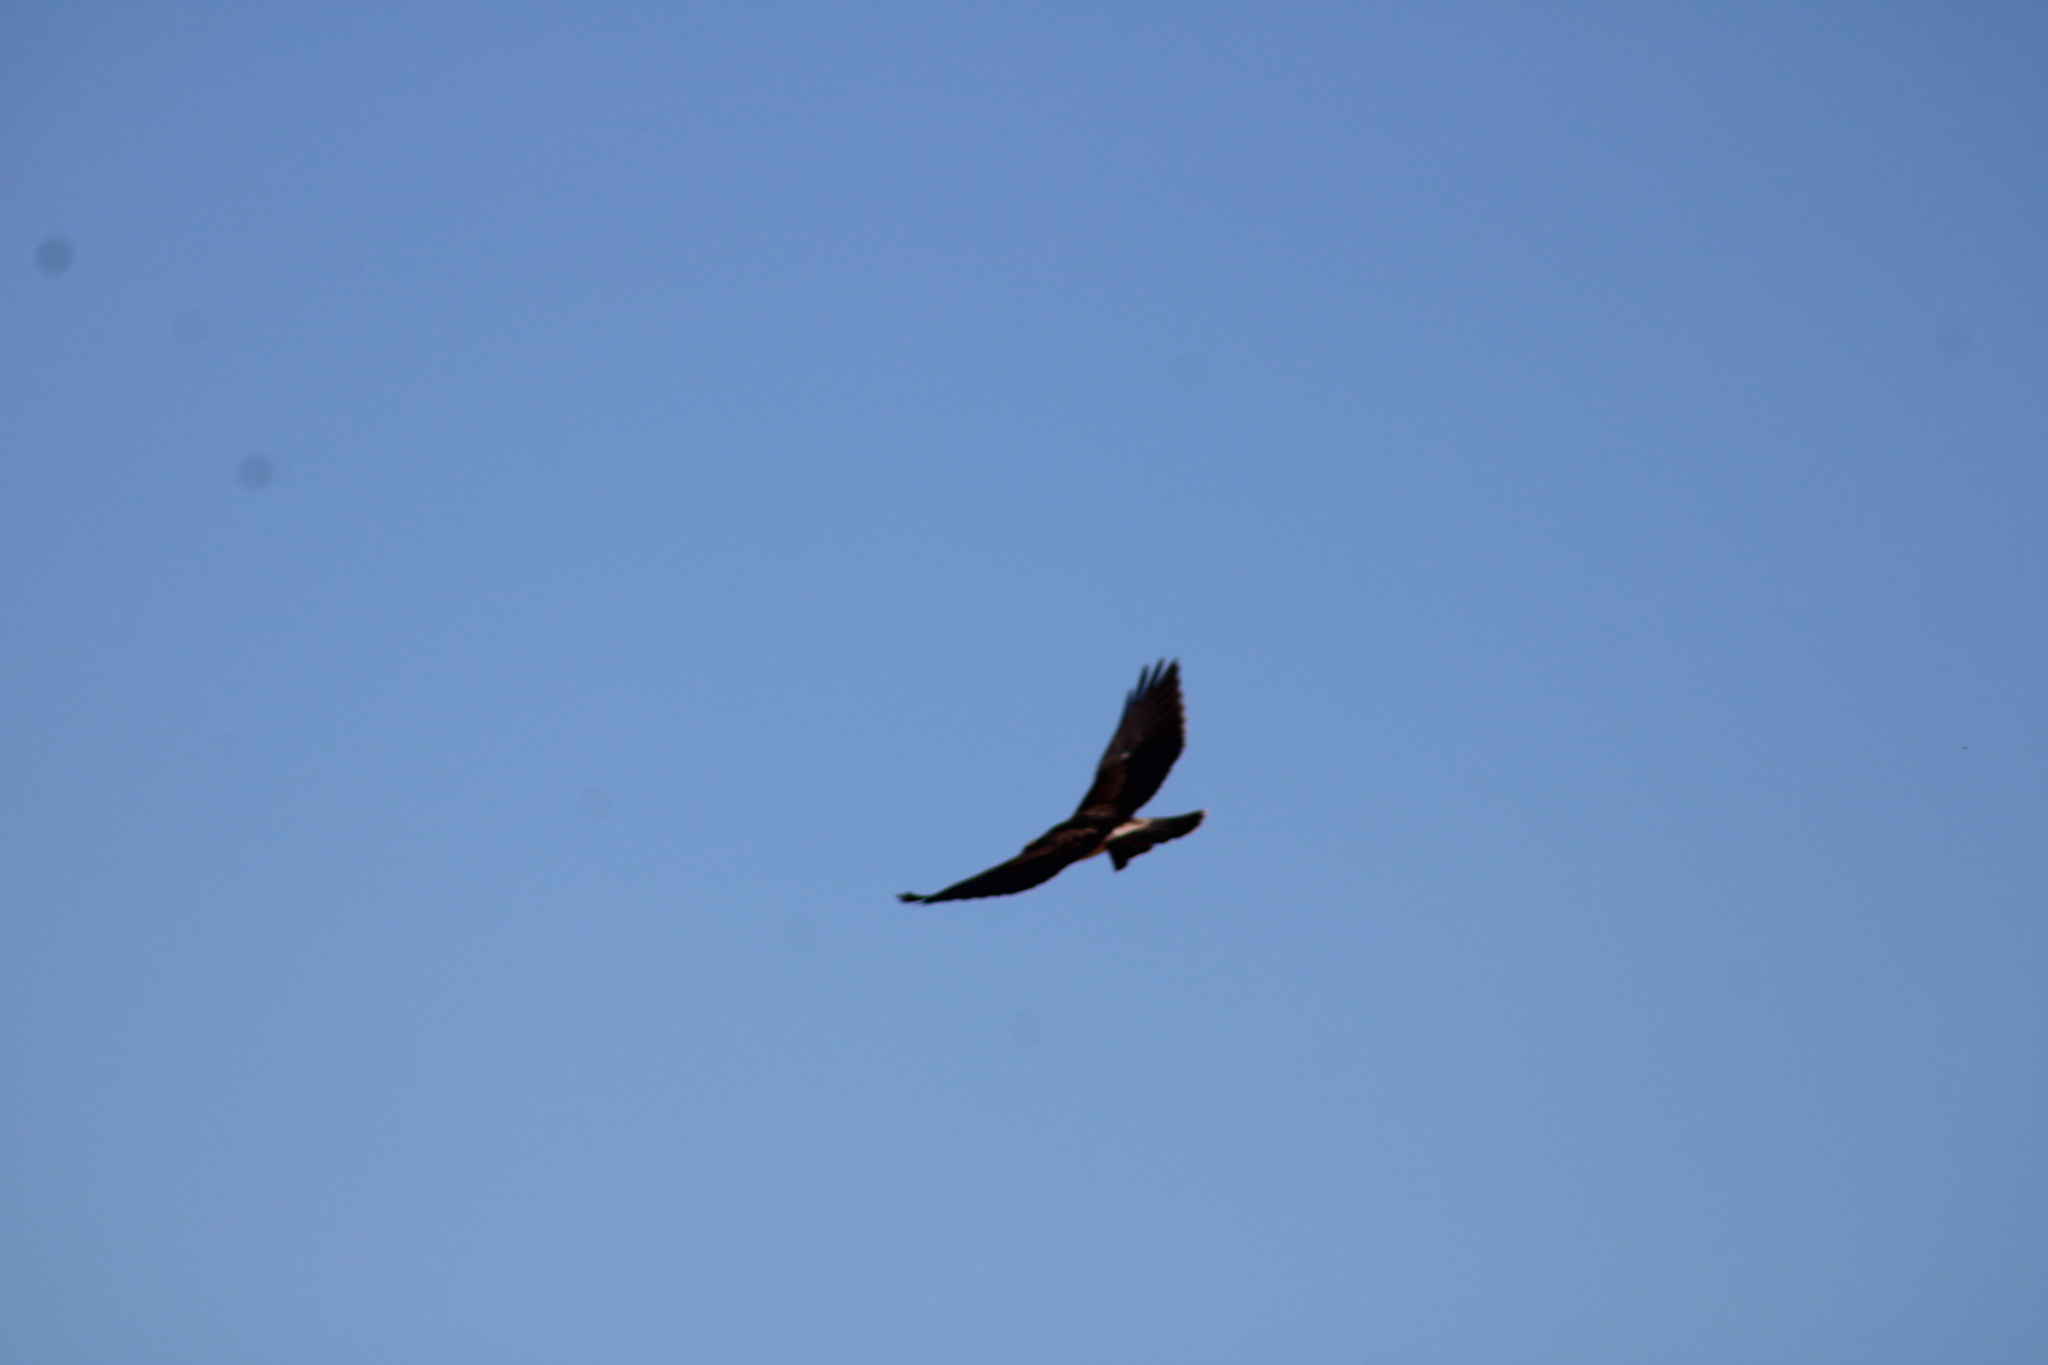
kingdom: Animalia
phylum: Chordata
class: Aves
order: Accipitriformes
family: Accipitridae
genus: Buteo
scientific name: Buteo swainsoni
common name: Swainson's hawk
